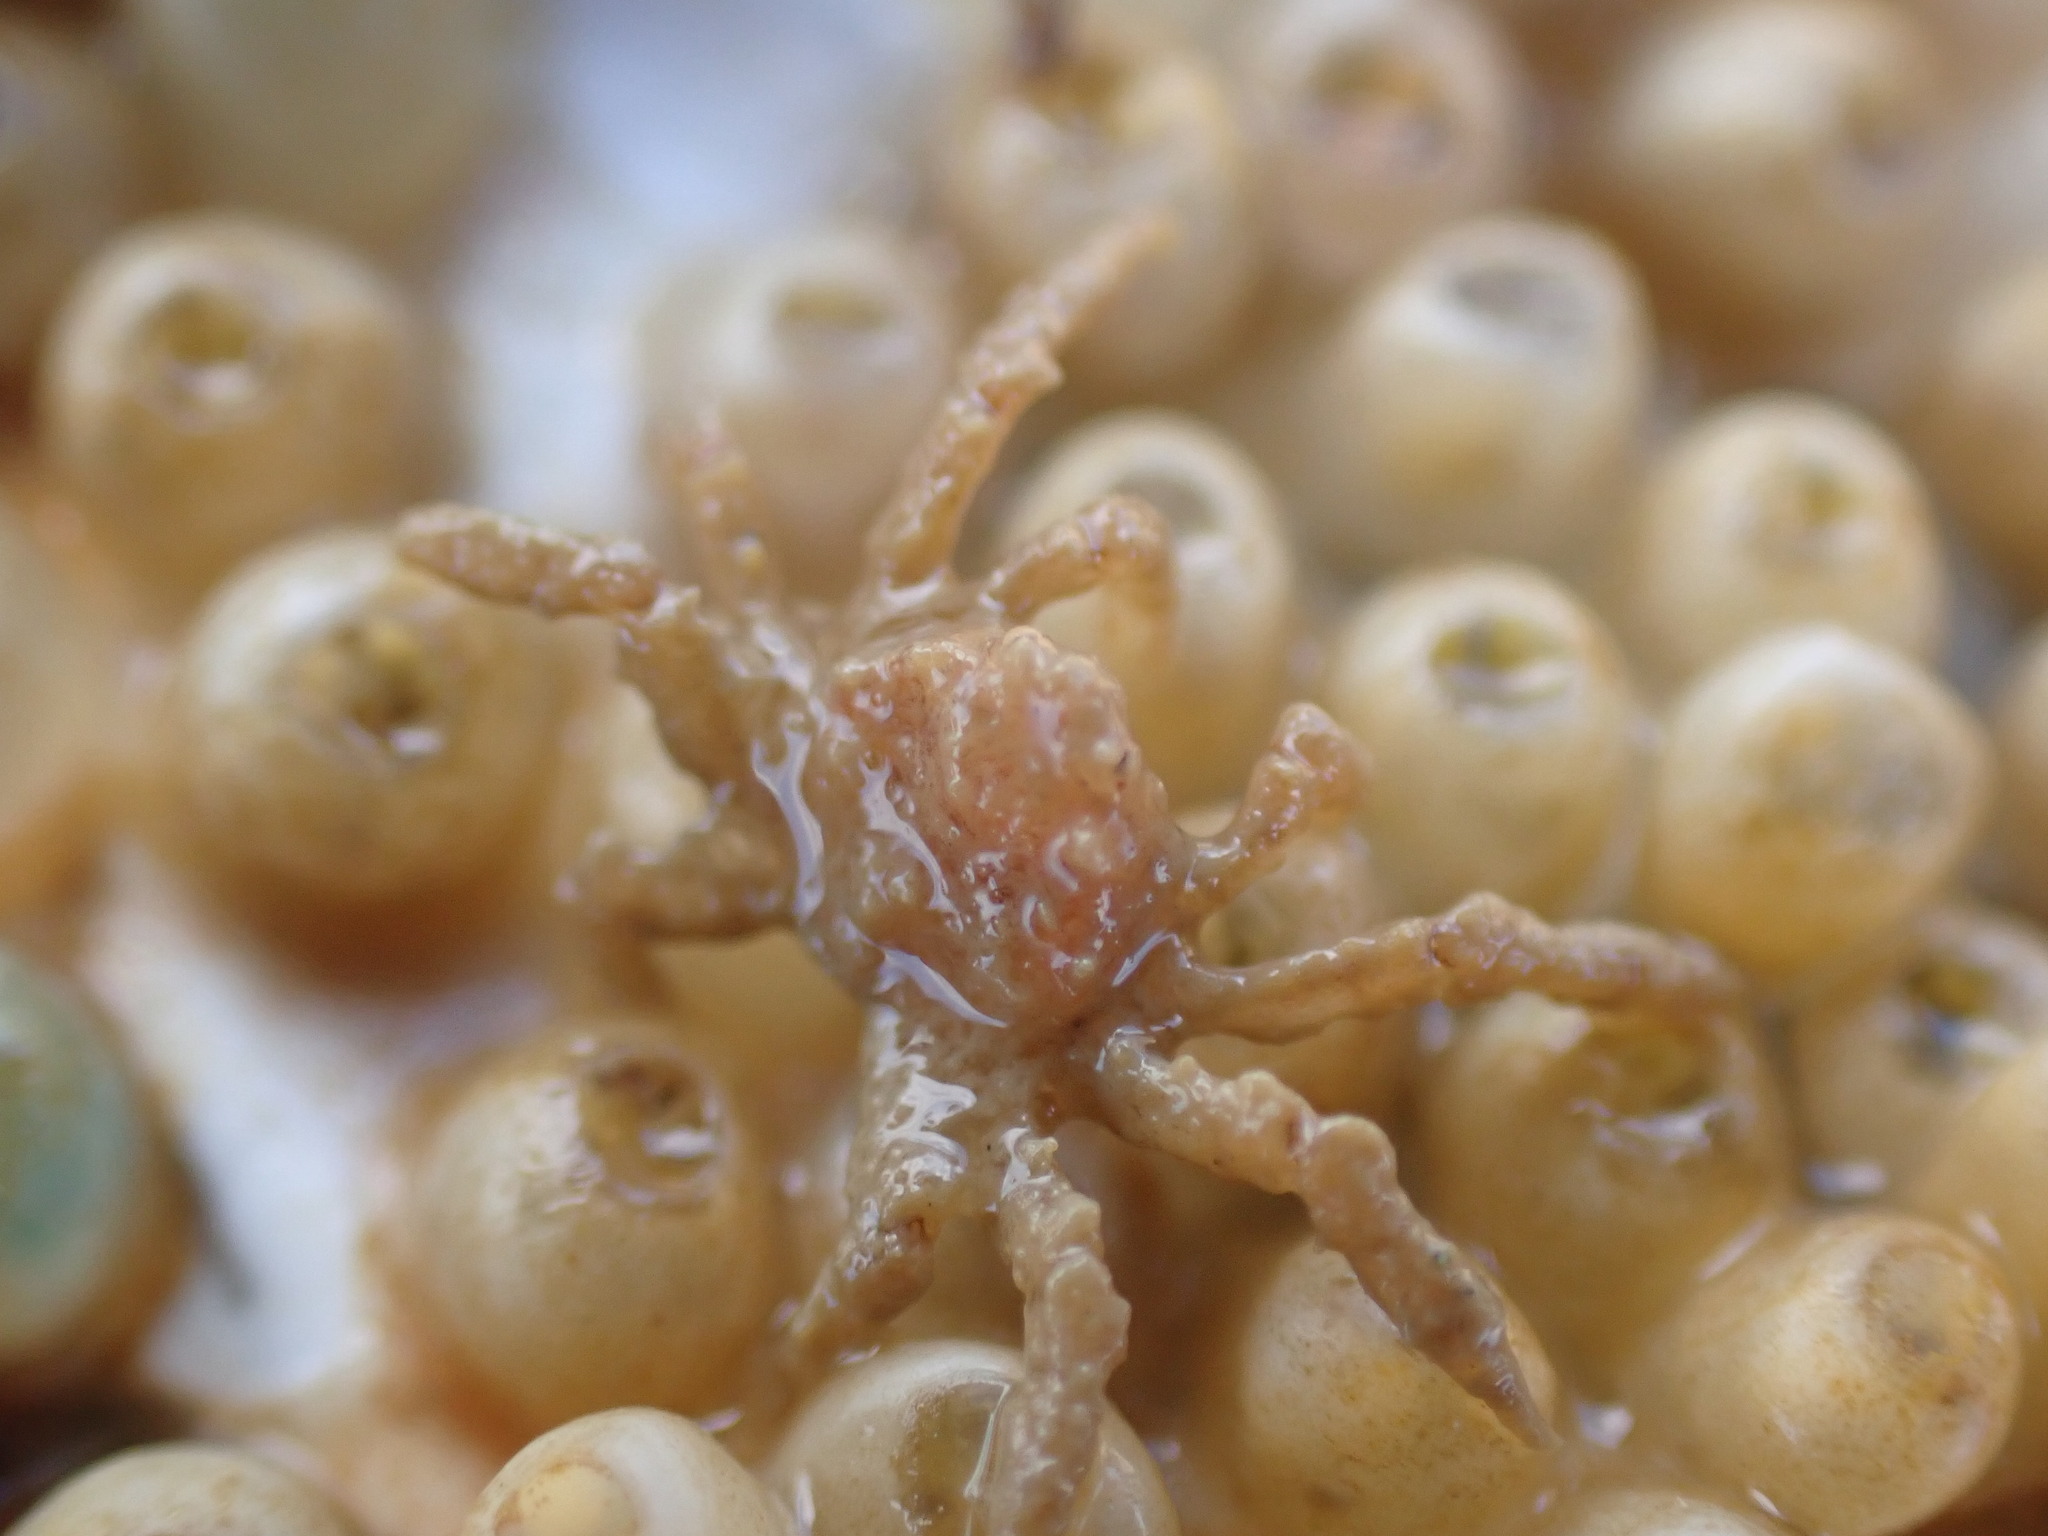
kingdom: Animalia
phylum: Arthropoda
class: Malacostraca
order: Decapoda
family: Hymenosomatidae
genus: Neohymenicus
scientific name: Neohymenicus pubescens
